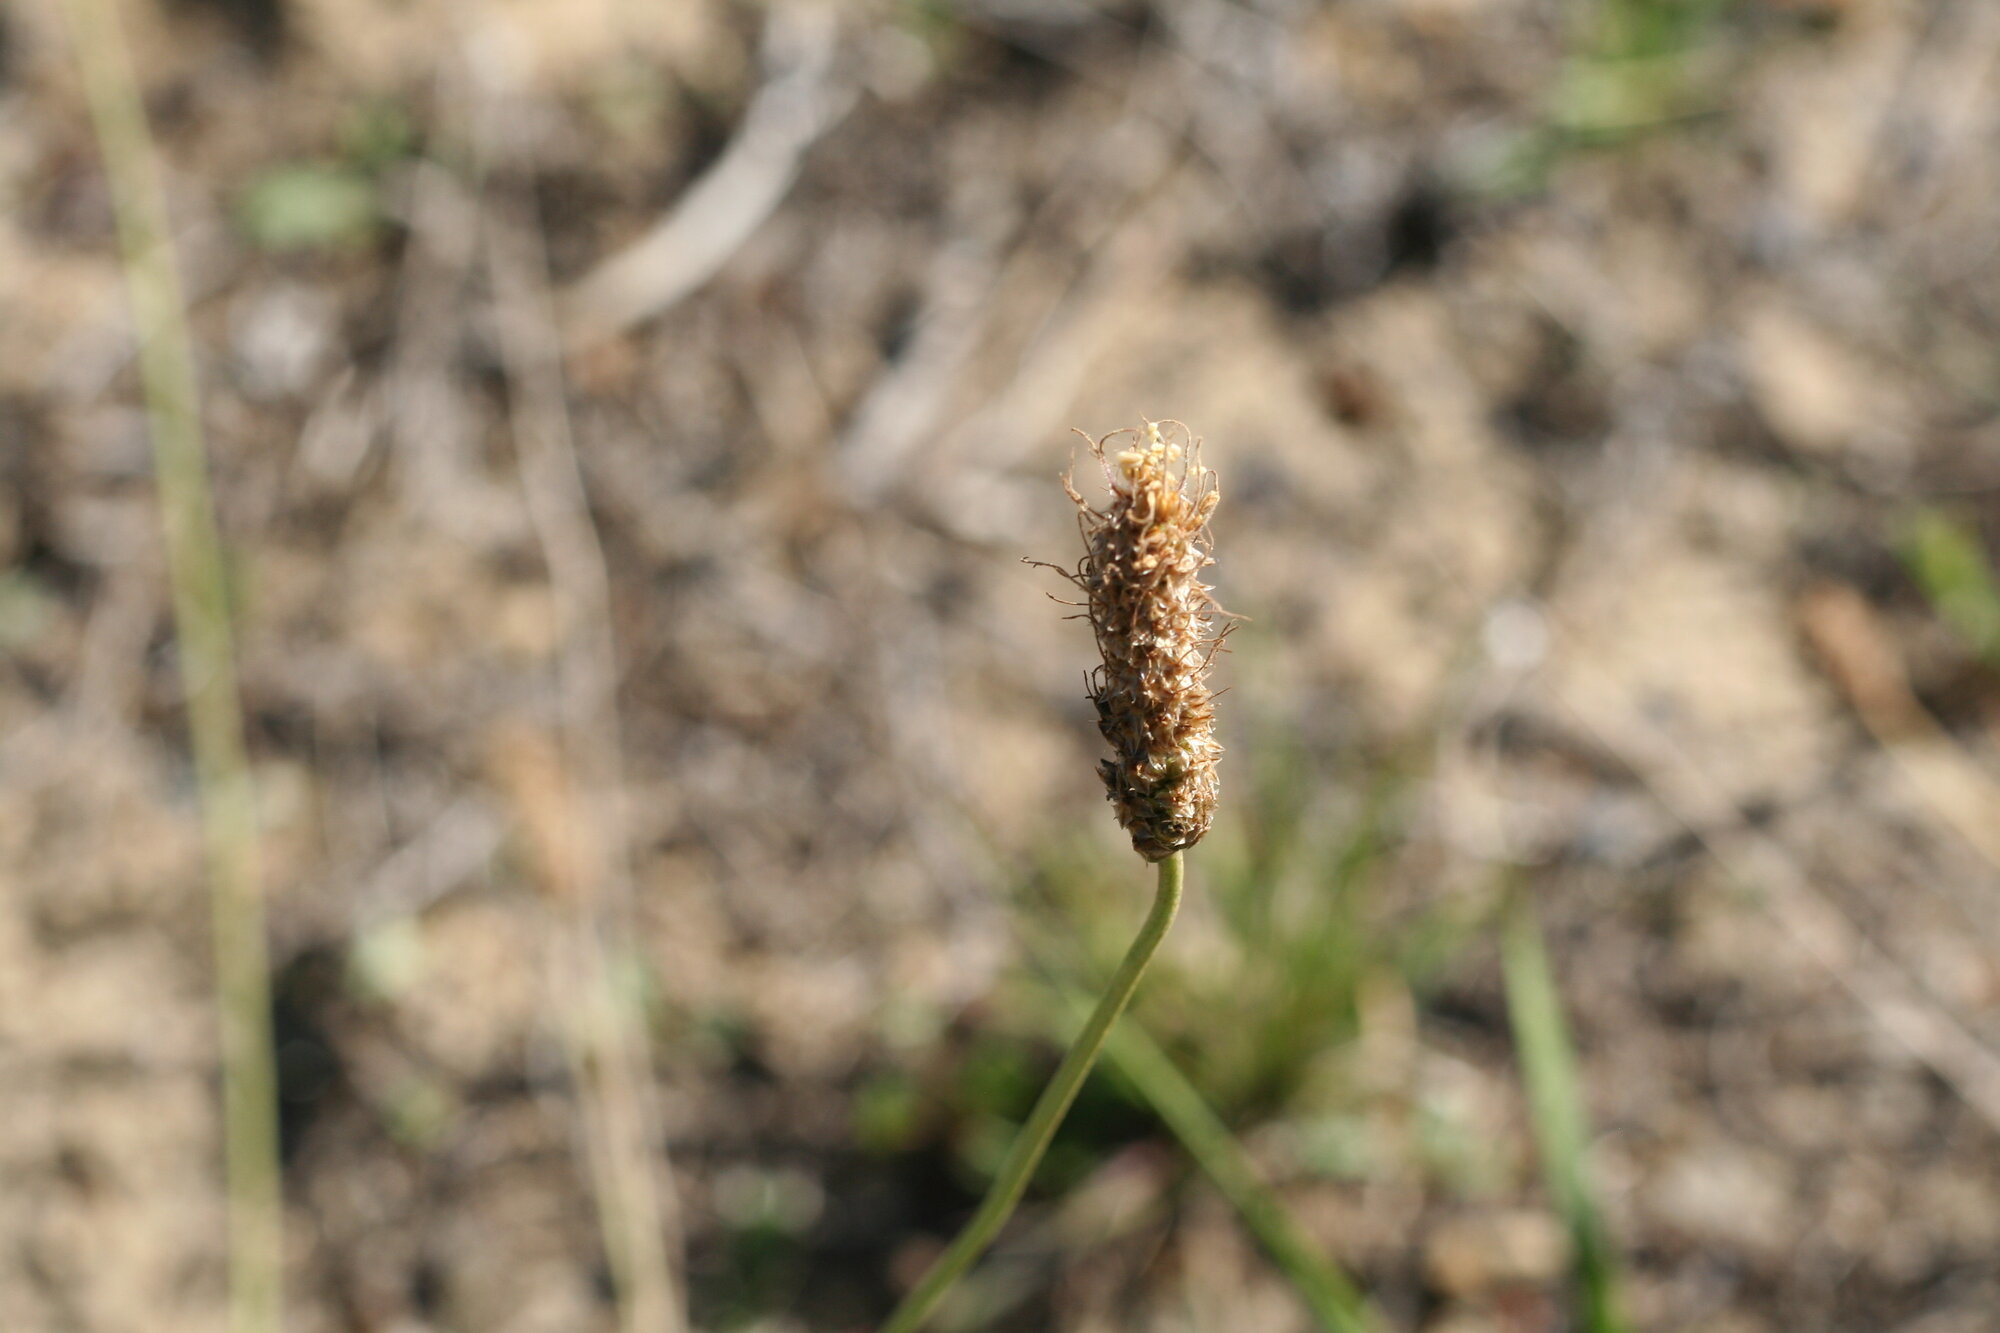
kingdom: Plantae
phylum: Tracheophyta
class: Magnoliopsida
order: Lamiales
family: Plantaginaceae
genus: Plantago
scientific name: Plantago lanceolata
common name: Ribwort plantain
